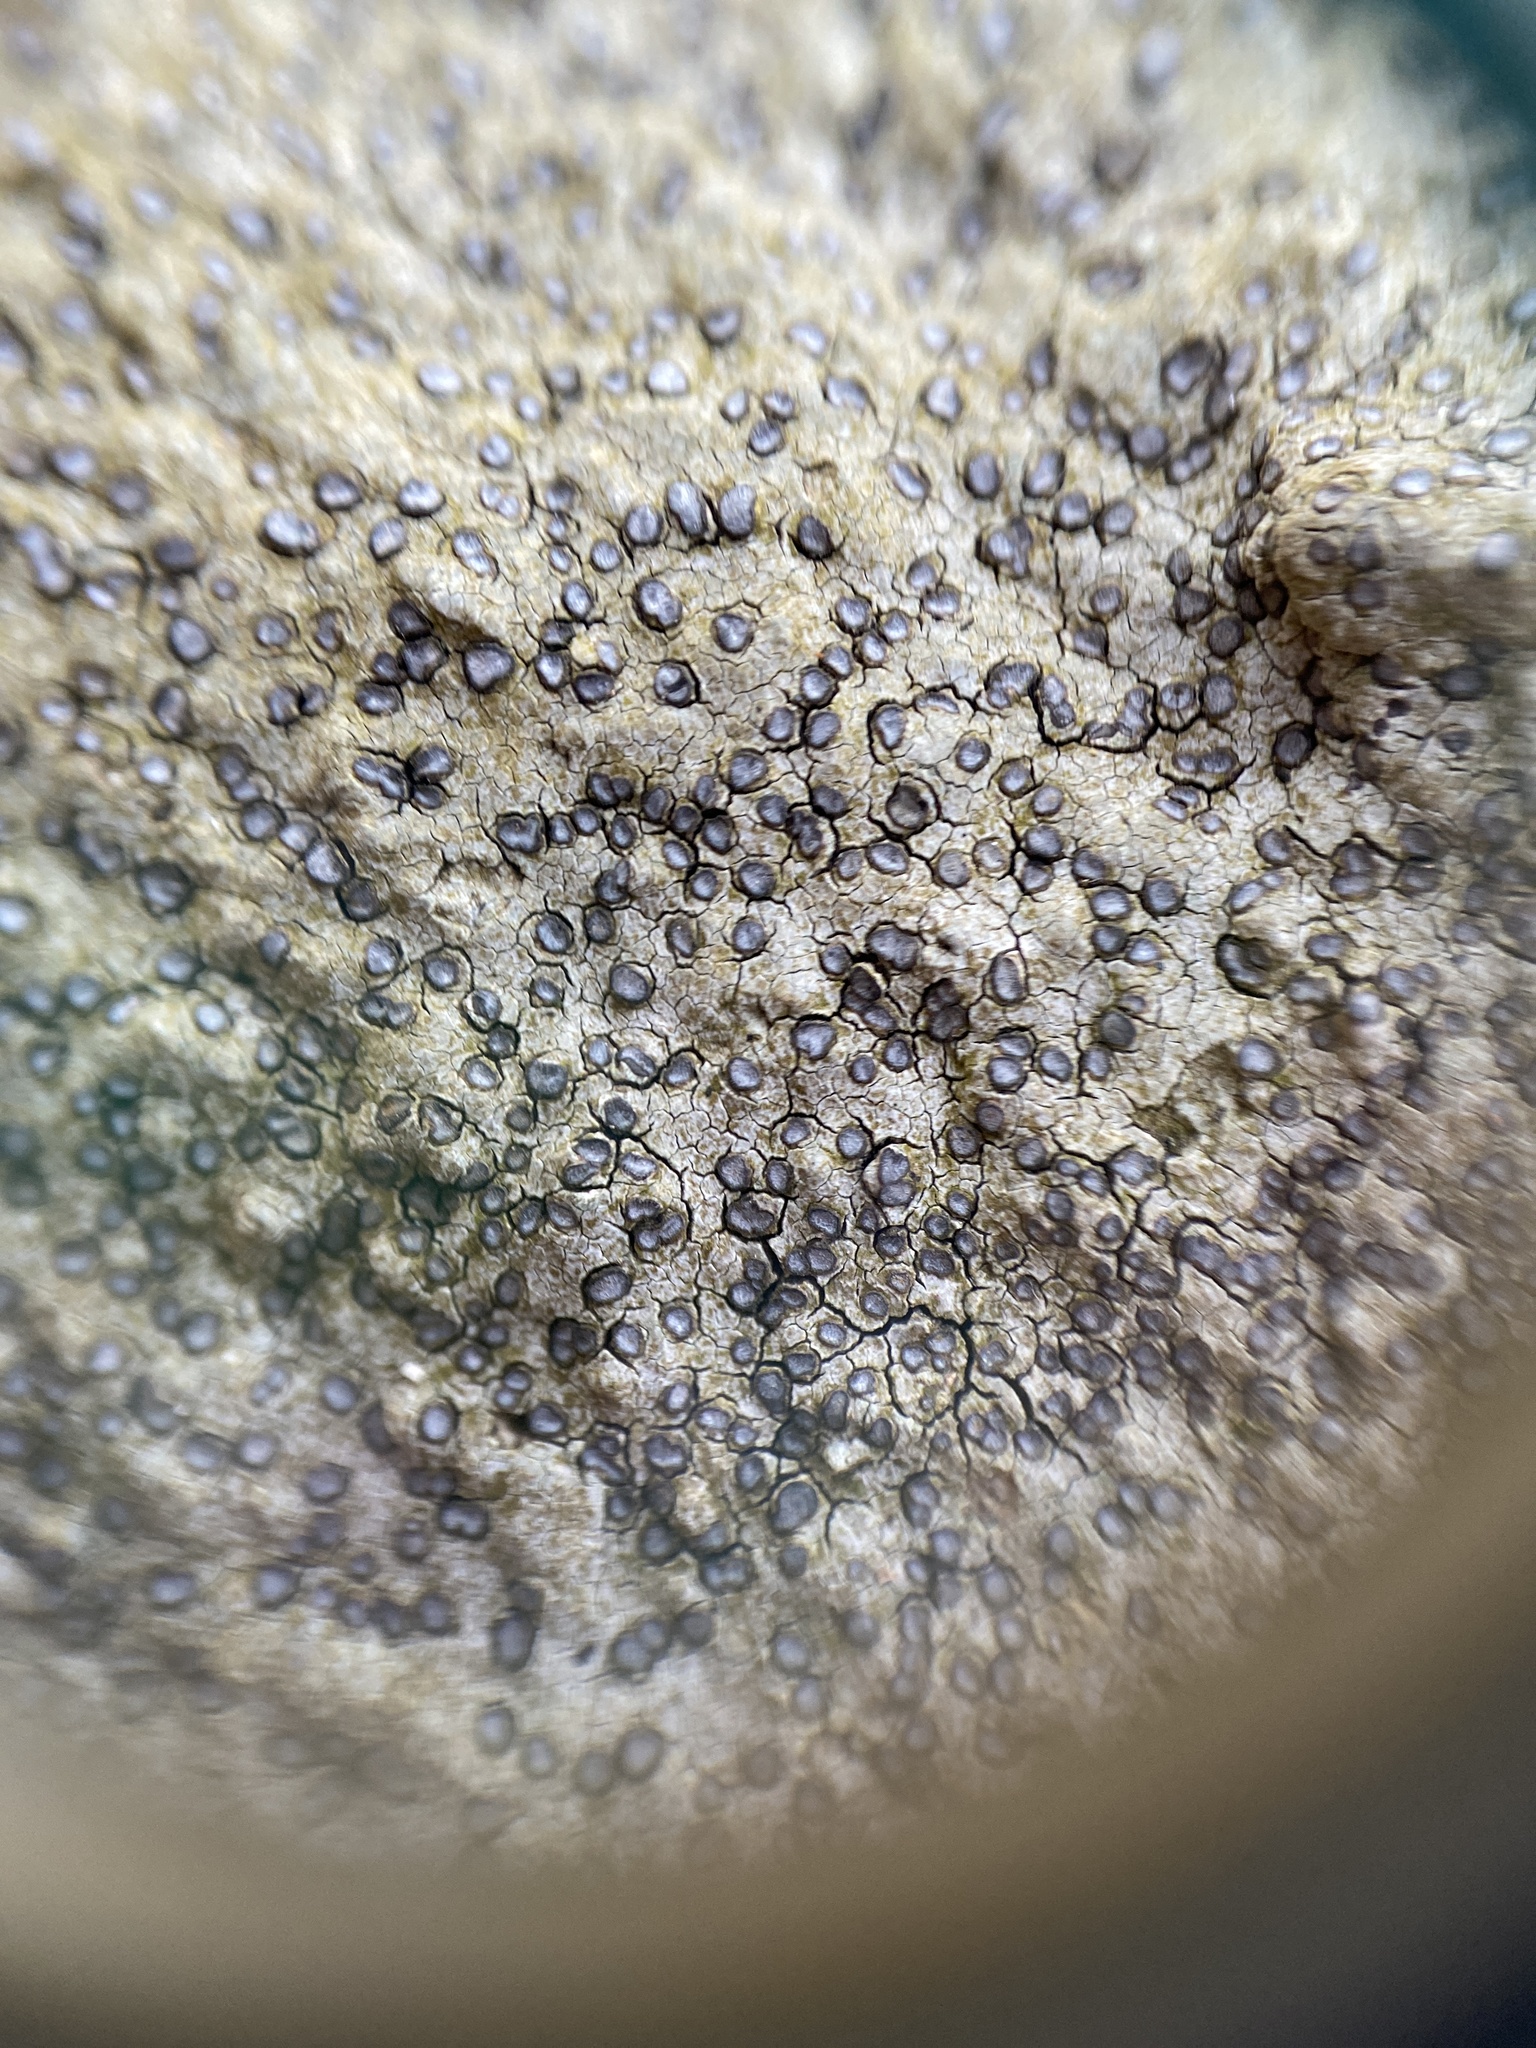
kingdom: Fungi
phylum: Ascomycota
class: Lecanoromycetes
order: Lecideales
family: Lecideaceae
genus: Porpidia
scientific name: Porpidia albocaerulescens
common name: Smokey-eyed boulder lichen
